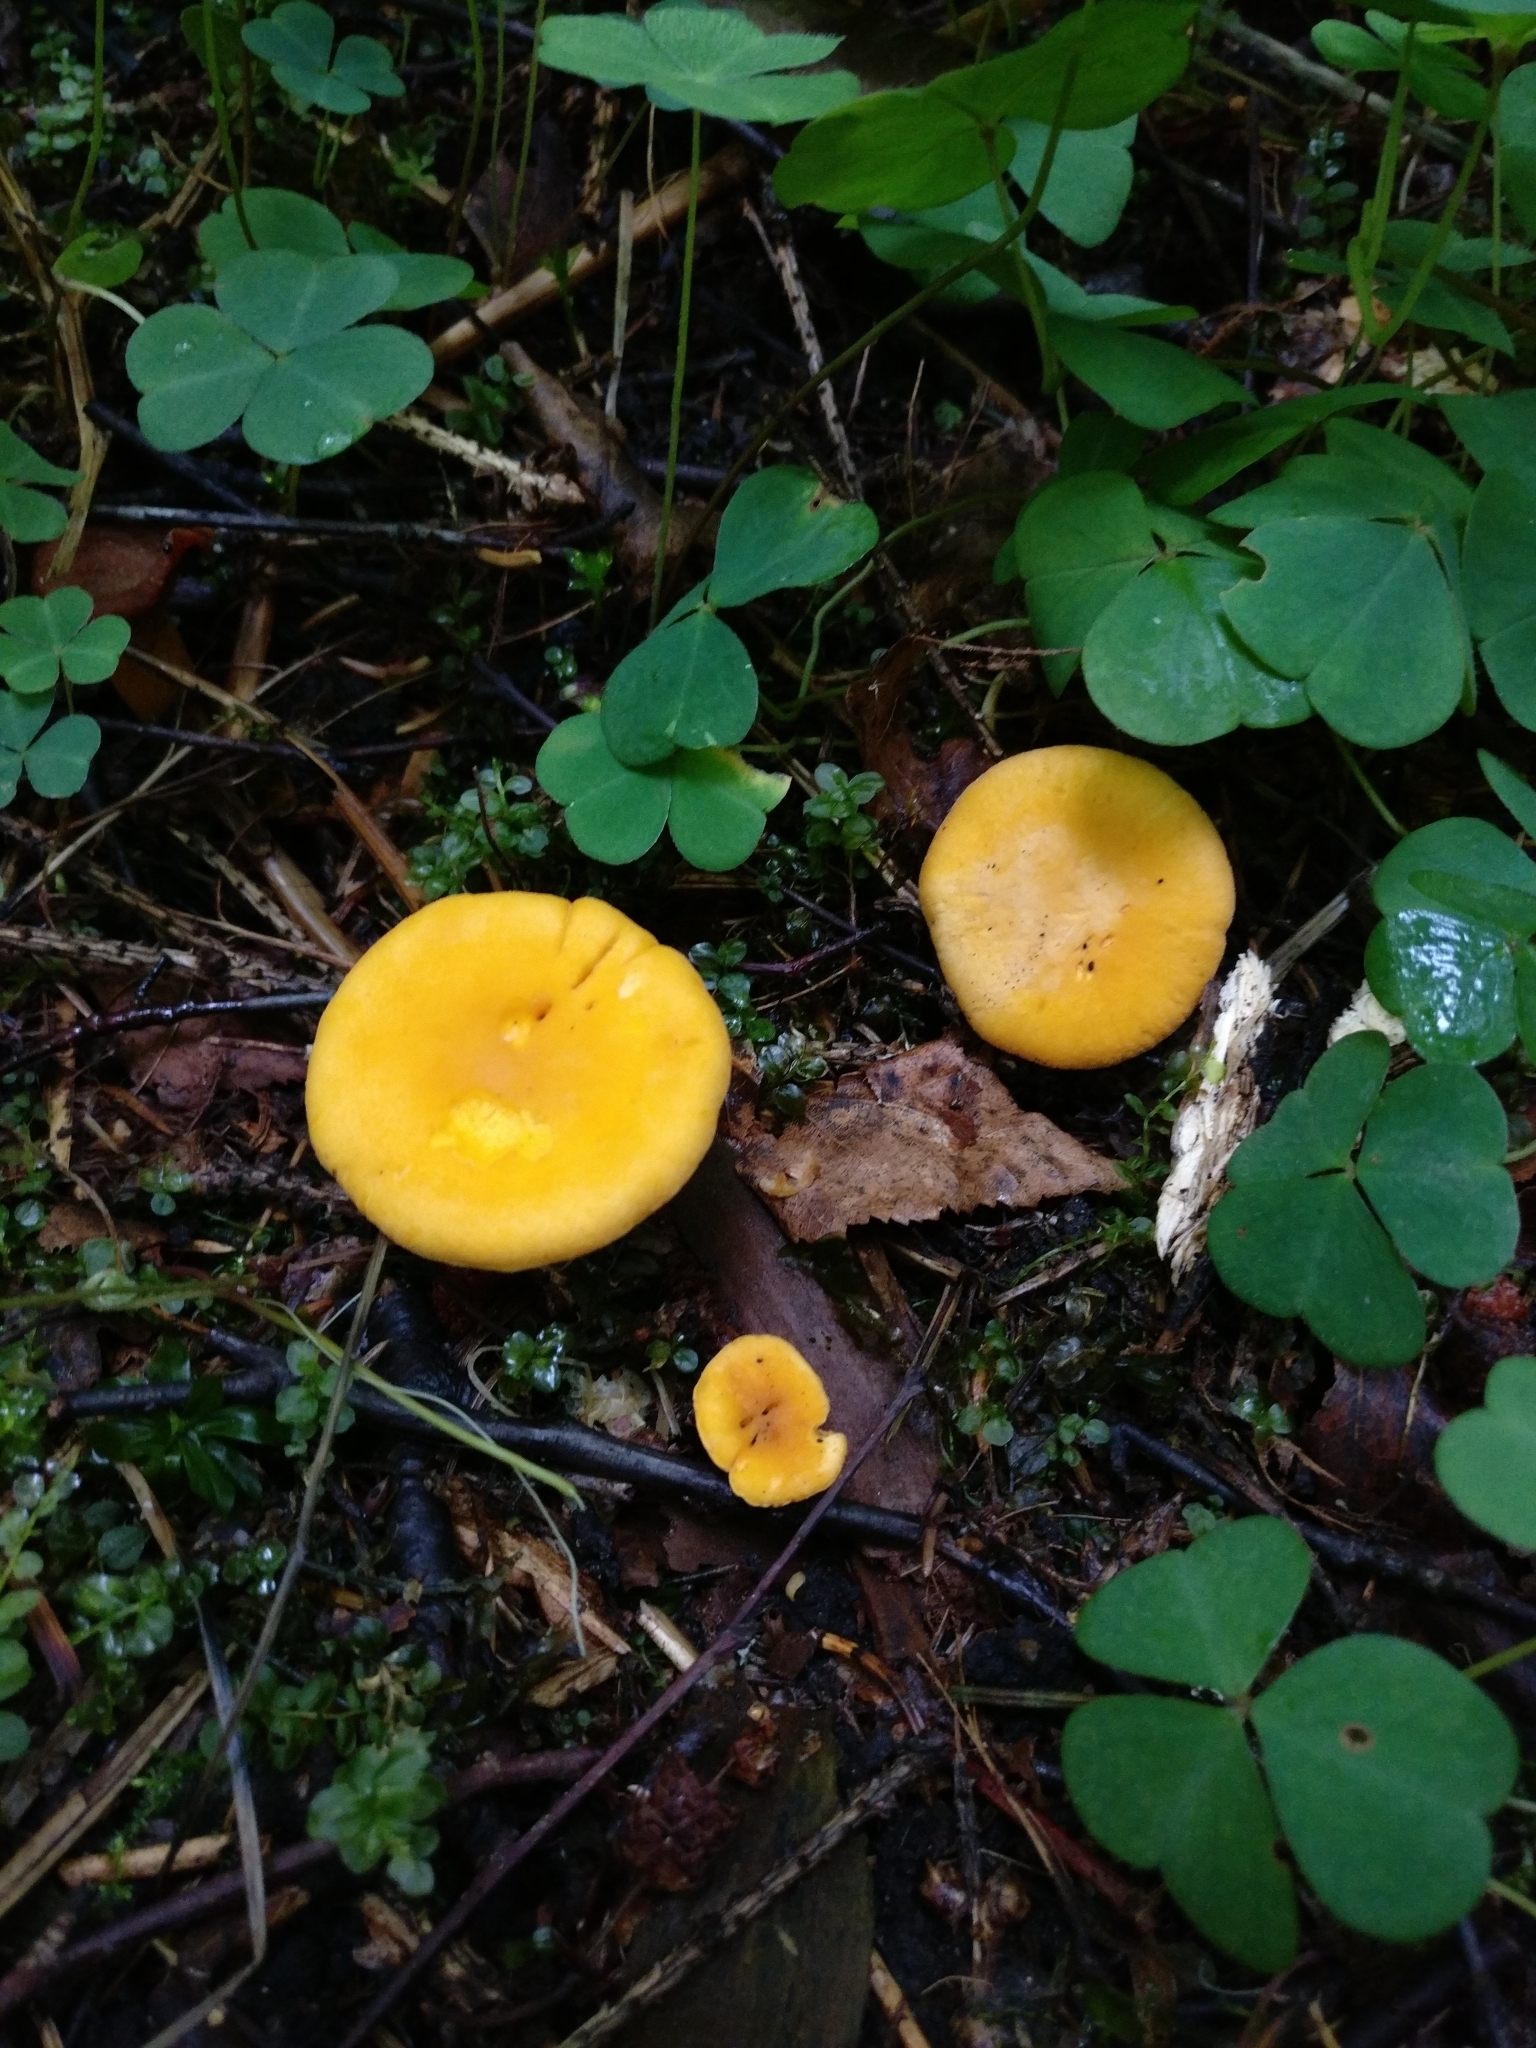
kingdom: Fungi
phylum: Basidiomycota
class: Agaricomycetes
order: Cantharellales
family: Hydnaceae
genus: Cantharellus
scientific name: Cantharellus cibarius
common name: Chanterelle
